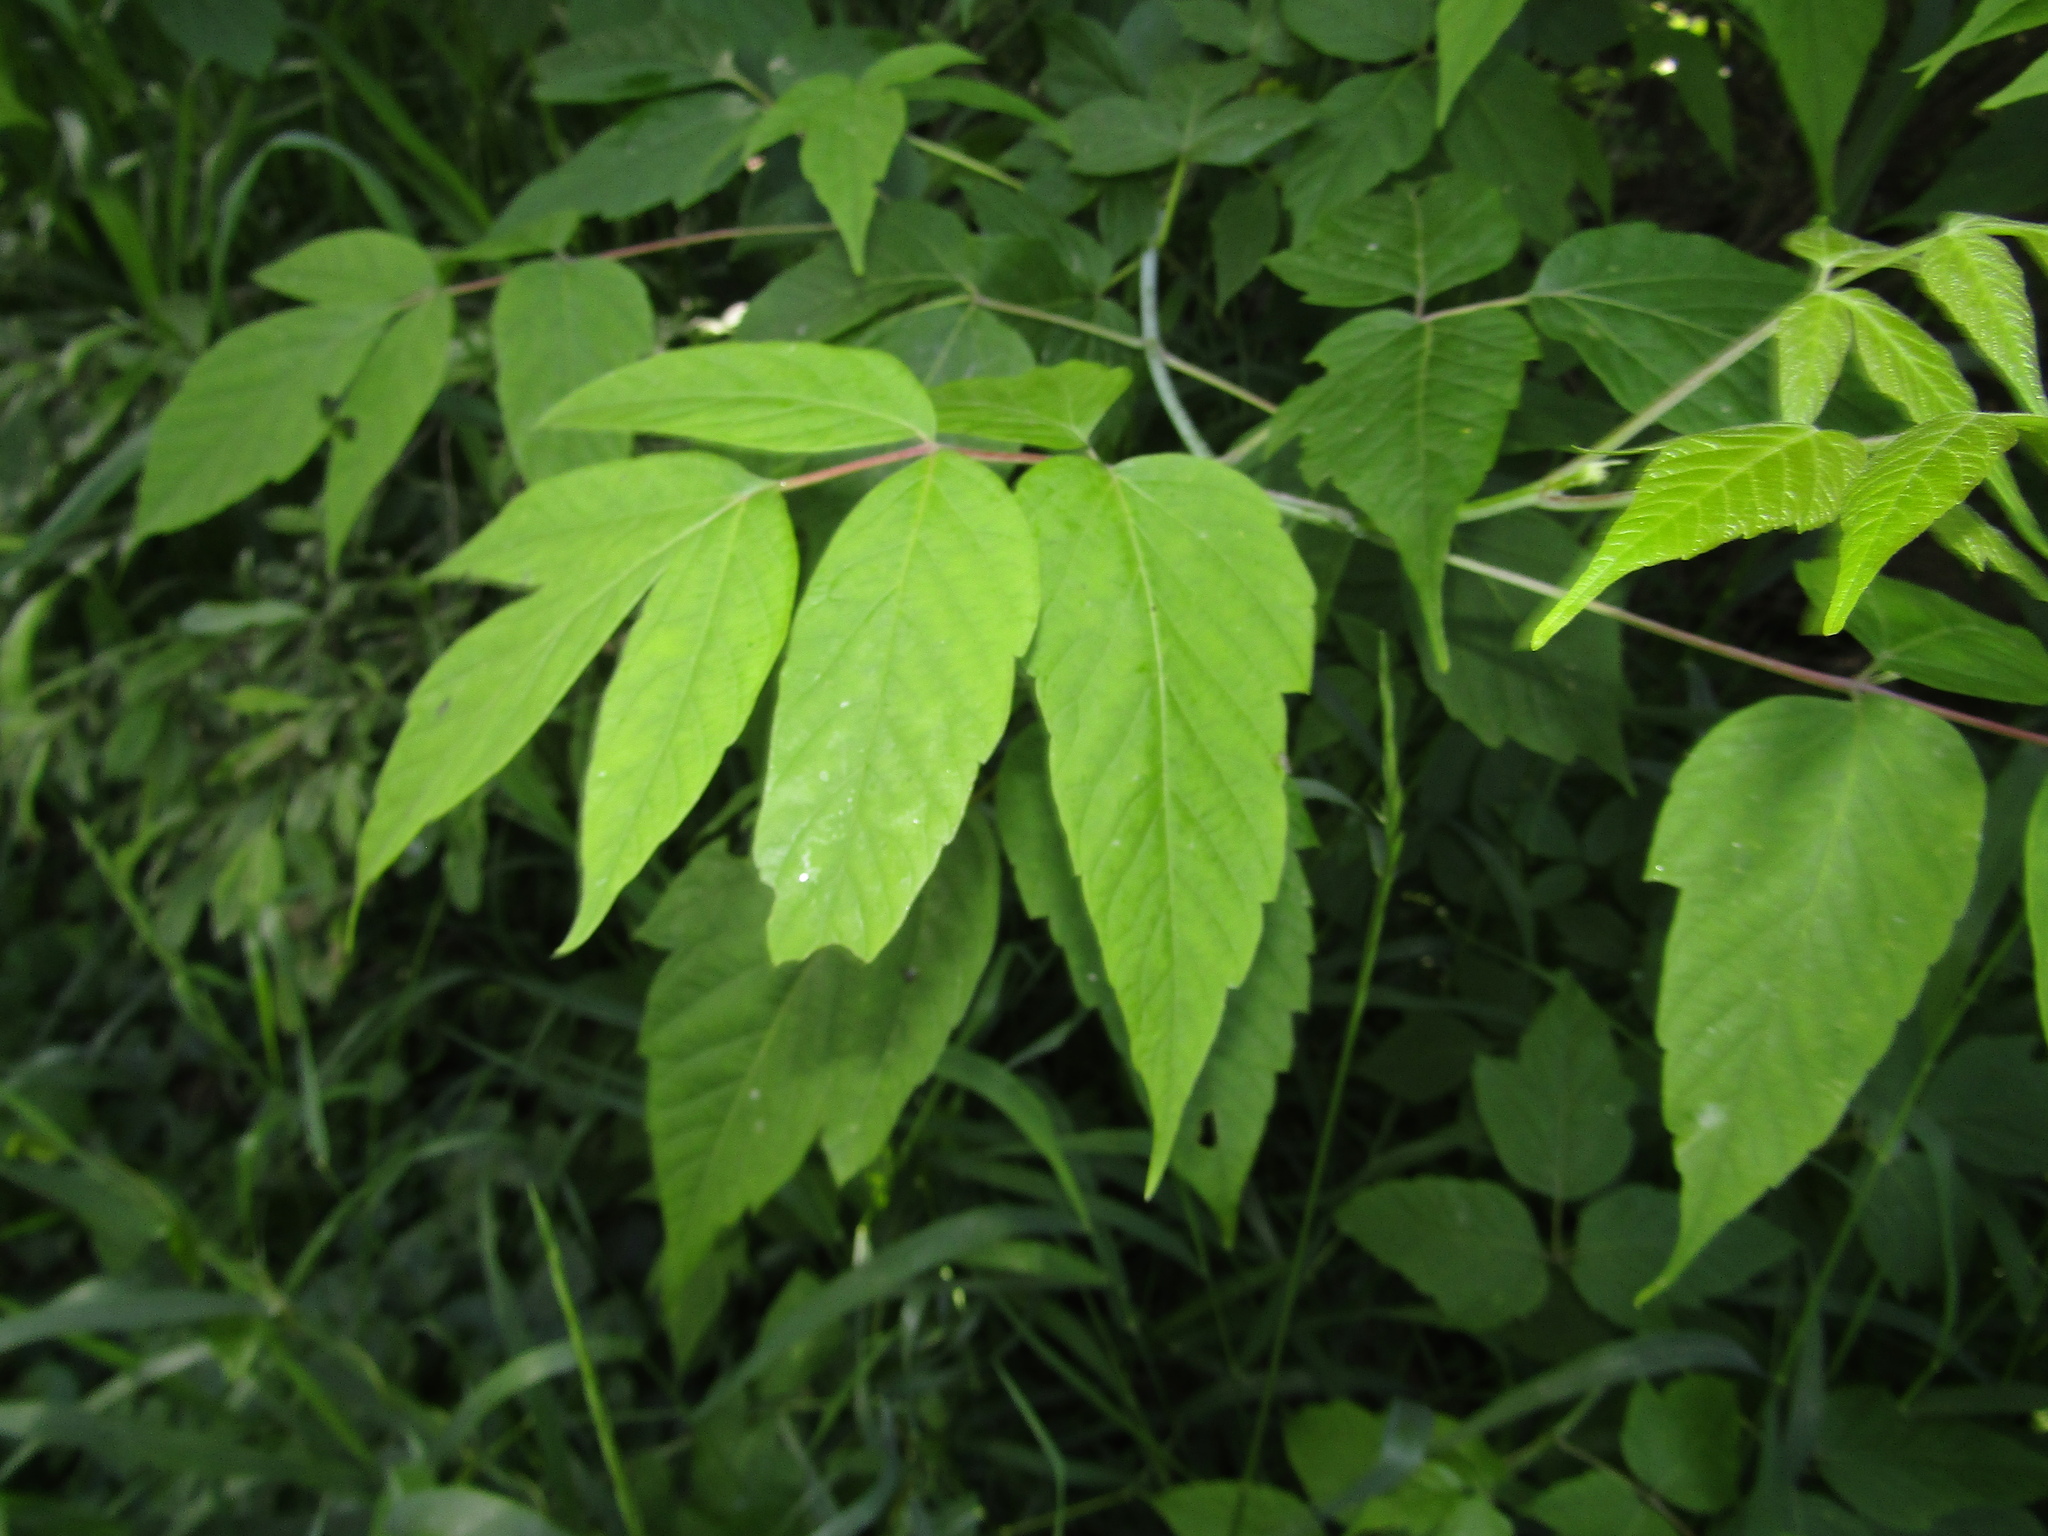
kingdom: Plantae
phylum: Tracheophyta
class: Magnoliopsida
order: Sapindales
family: Sapindaceae
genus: Acer
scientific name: Acer negundo
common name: Ashleaf maple
